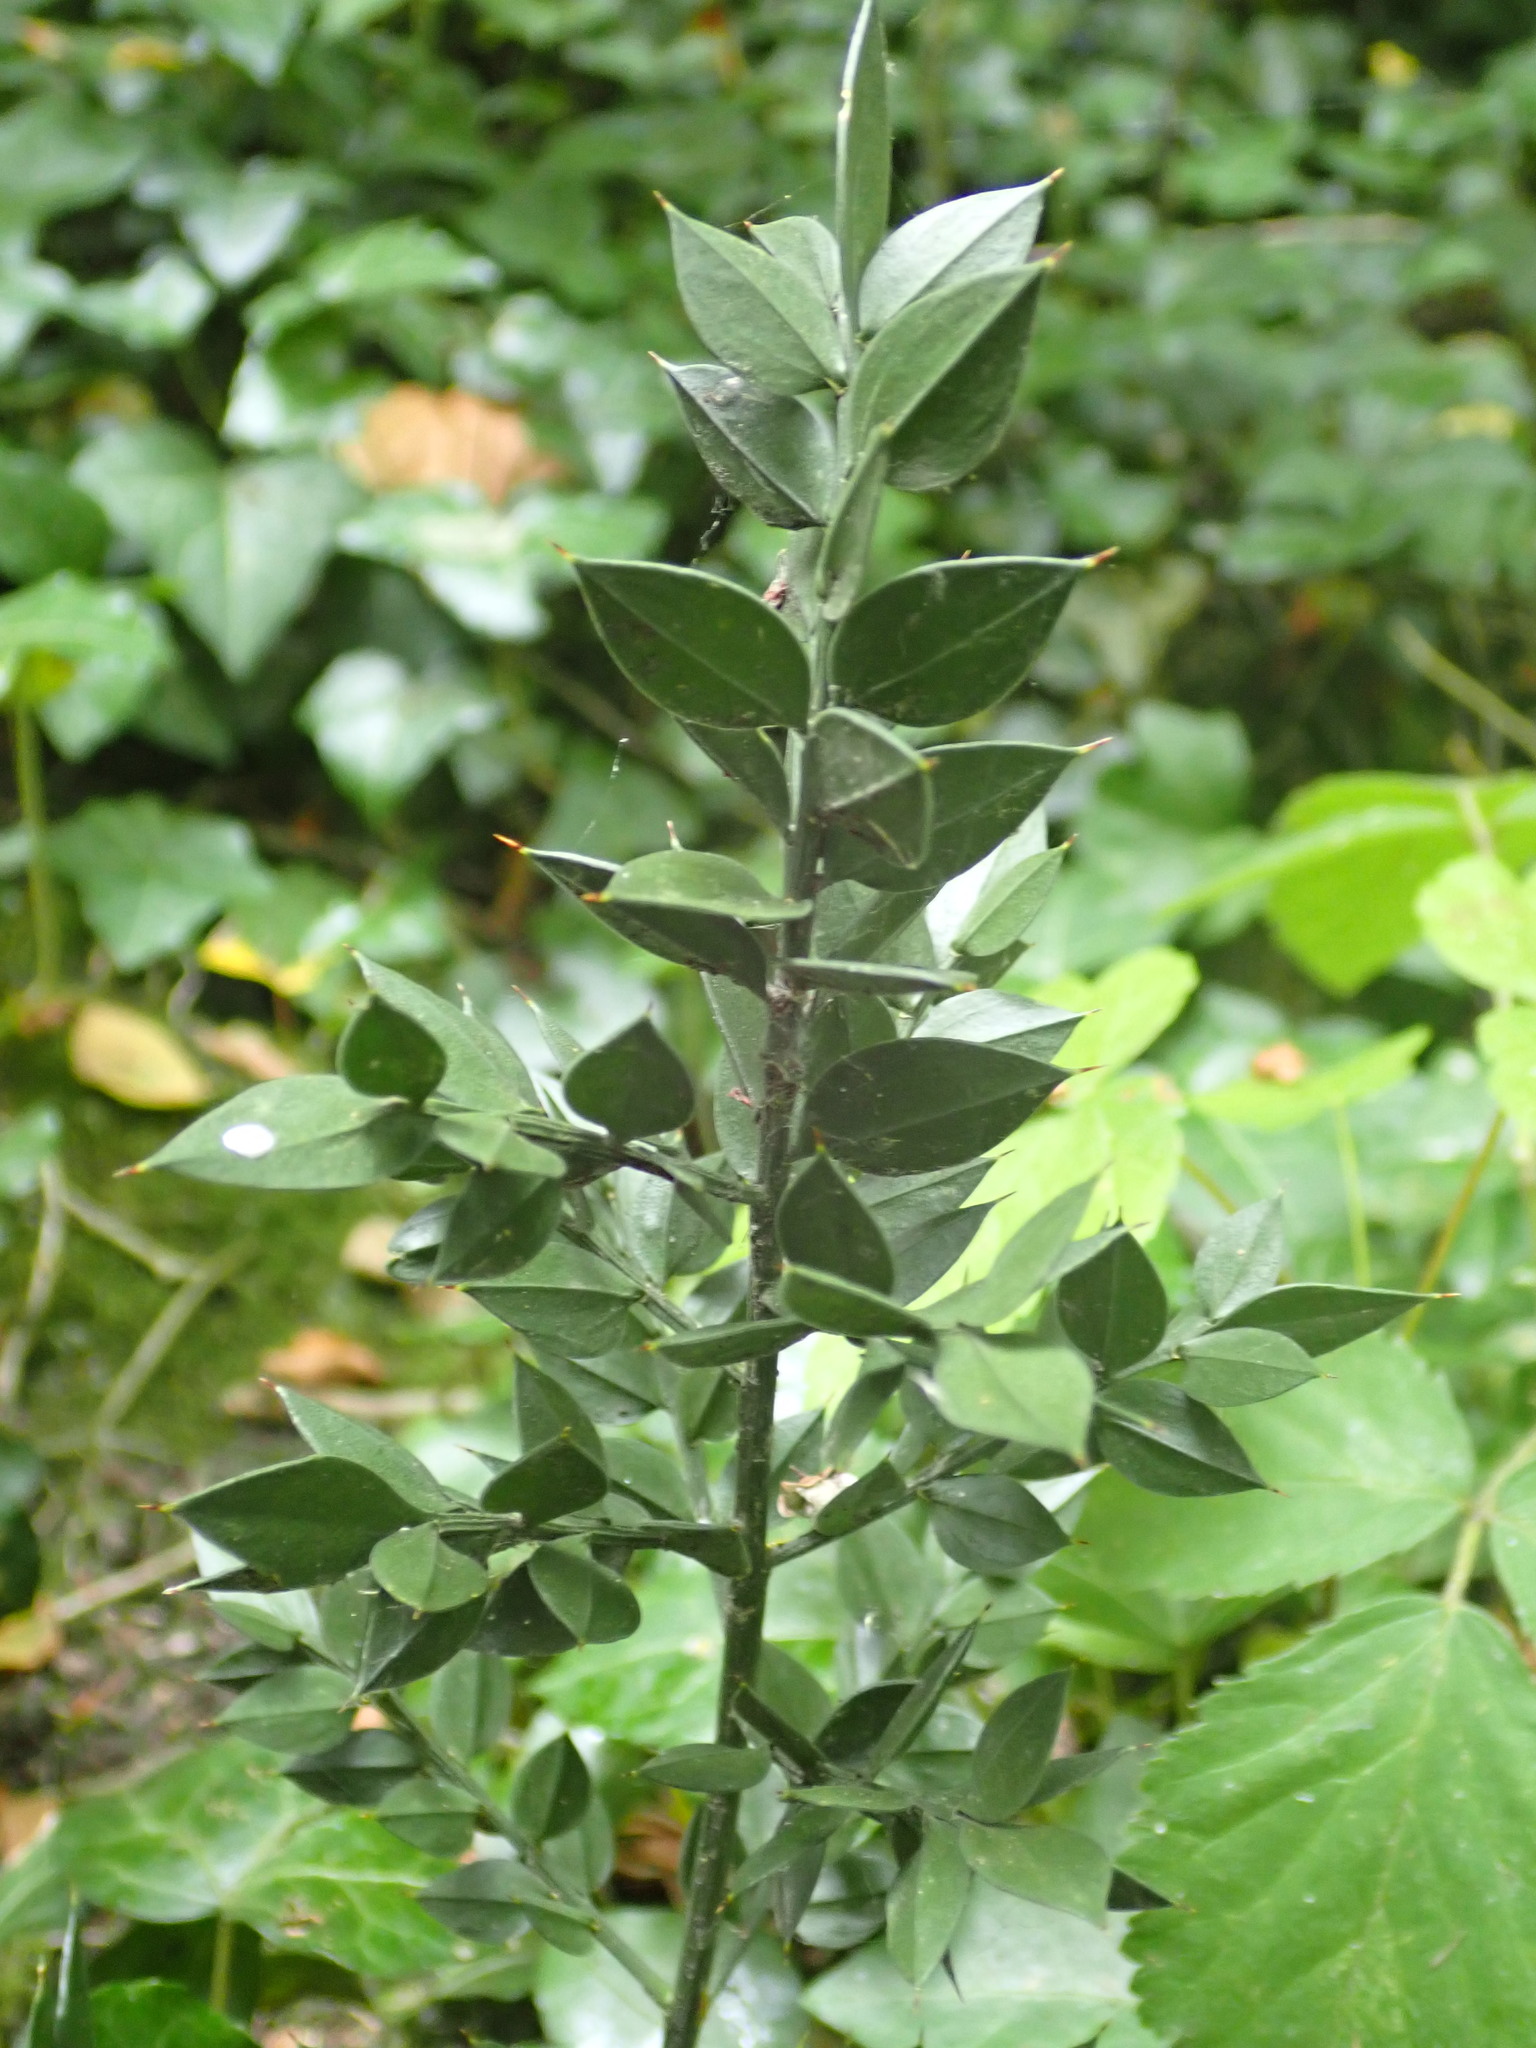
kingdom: Plantae
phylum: Tracheophyta
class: Liliopsida
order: Asparagales
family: Asparagaceae
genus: Ruscus
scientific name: Ruscus aculeatus
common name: Butcher's-broom
